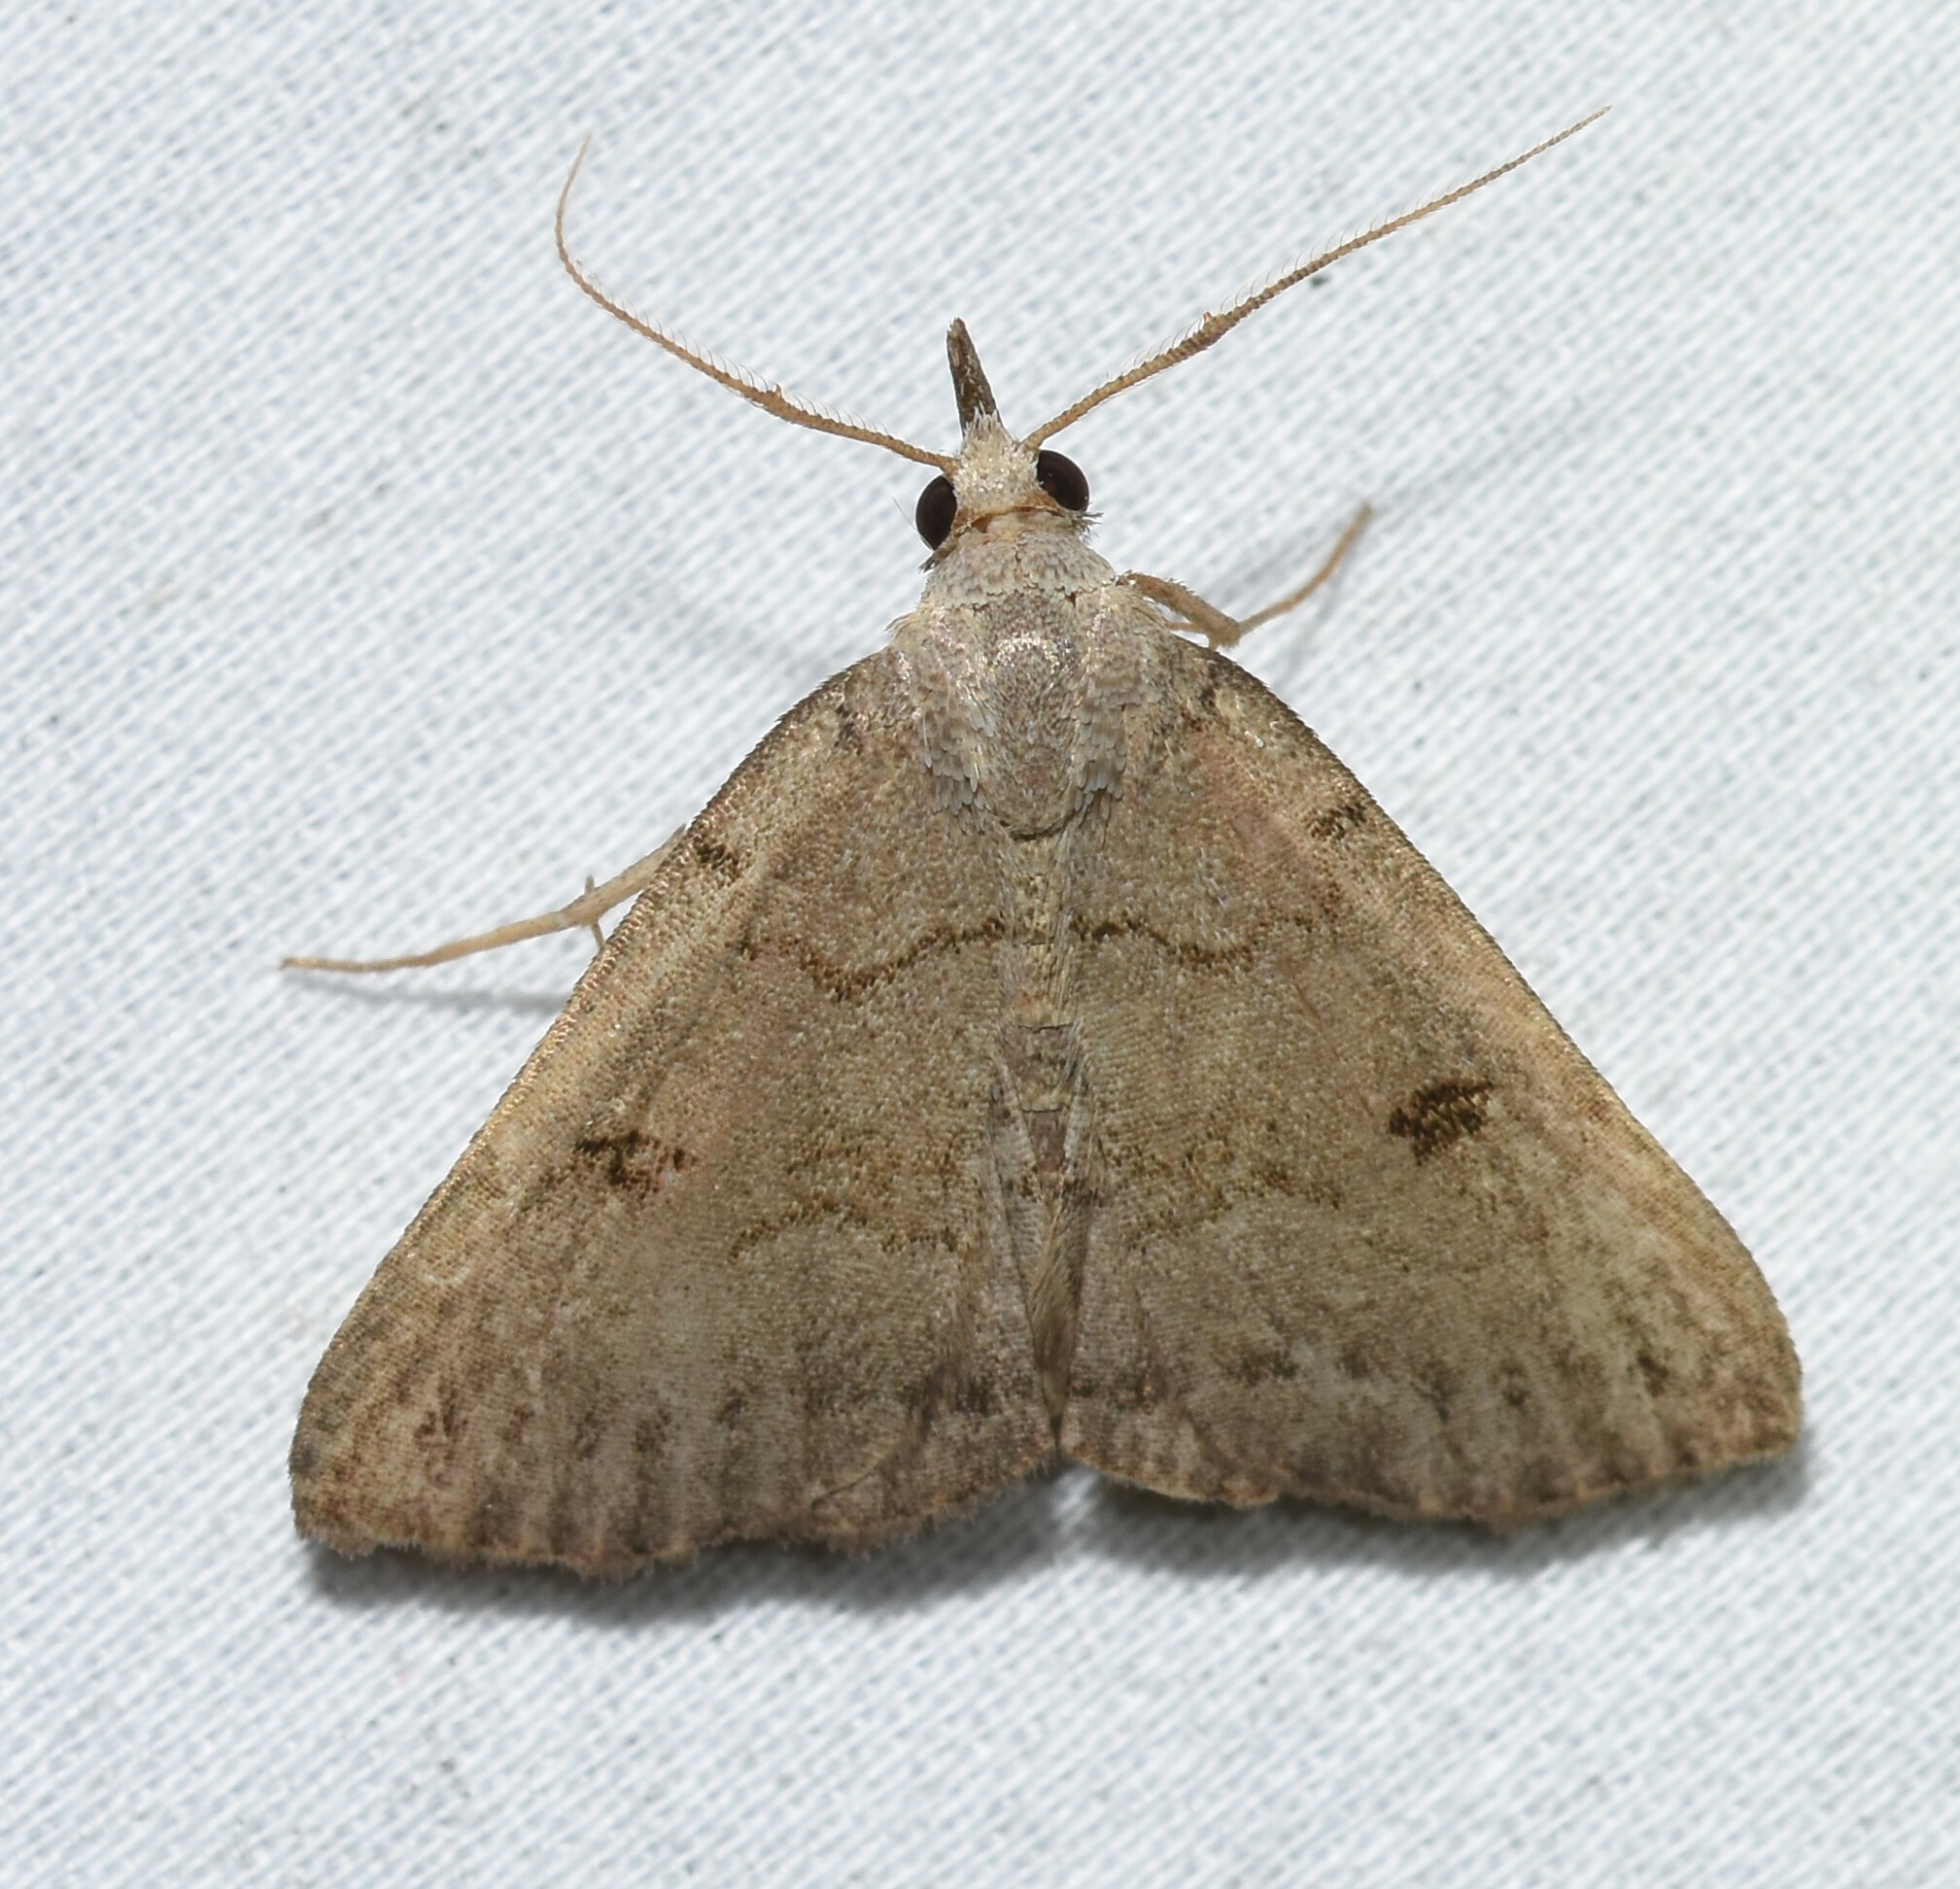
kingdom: Animalia
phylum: Arthropoda
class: Insecta
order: Lepidoptera
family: Erebidae
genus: Macrochilo
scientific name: Macrochilo morbidalis
